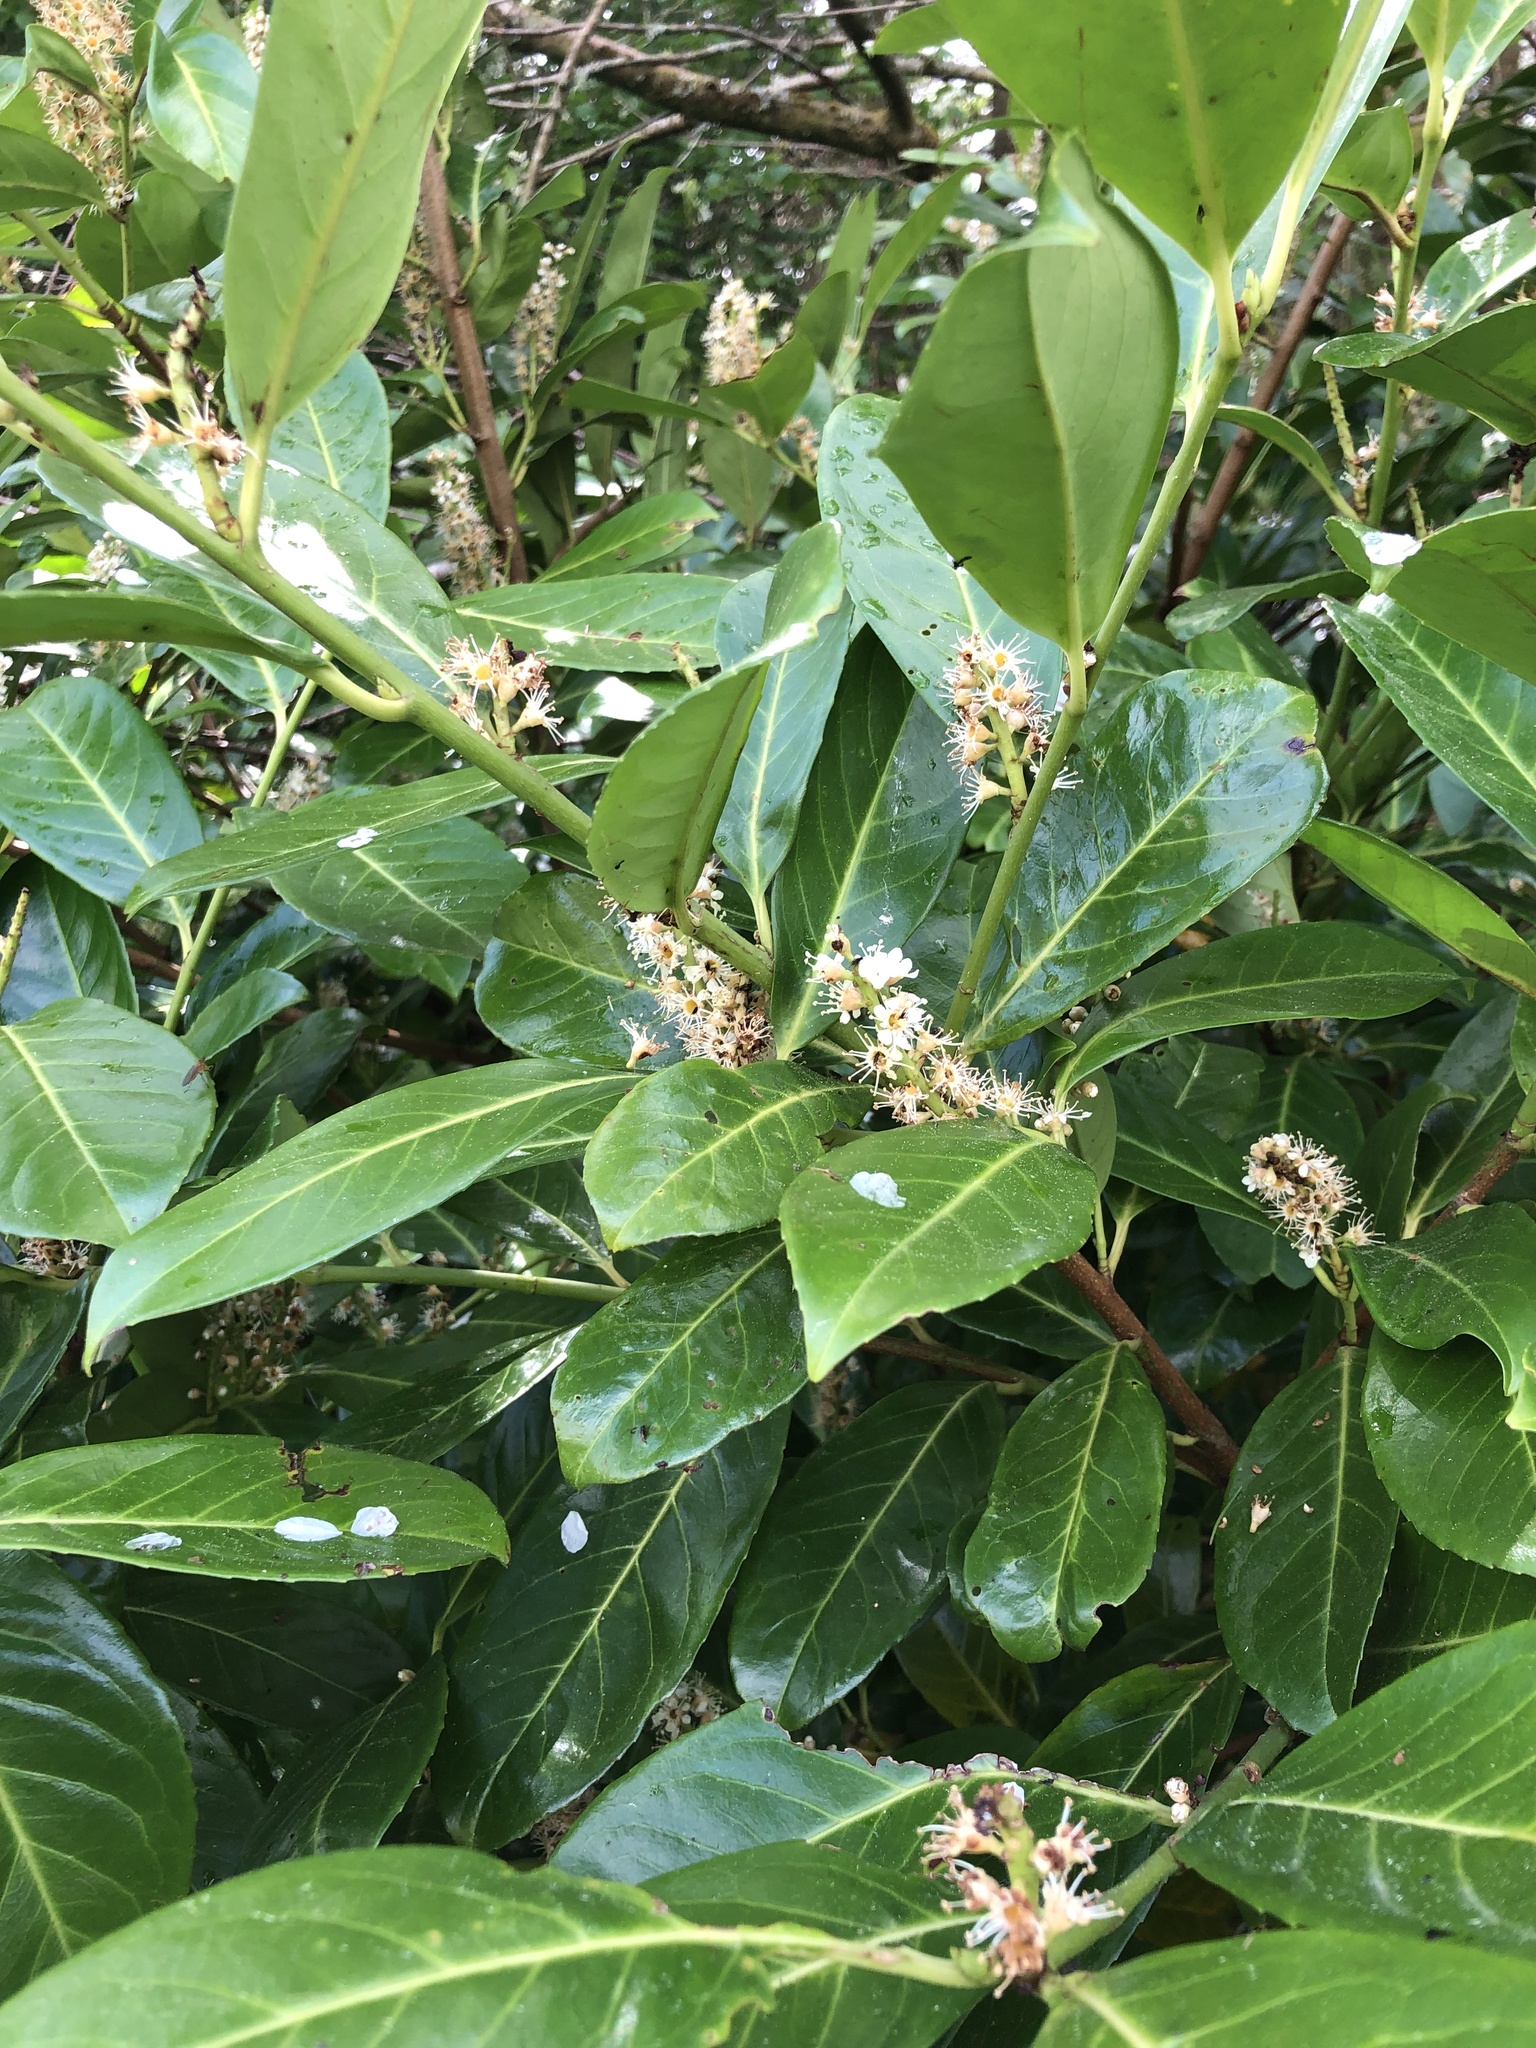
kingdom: Plantae
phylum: Tracheophyta
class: Magnoliopsida
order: Rosales
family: Rosaceae
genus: Prunus
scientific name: Prunus laurocerasus
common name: Cherry laurel
